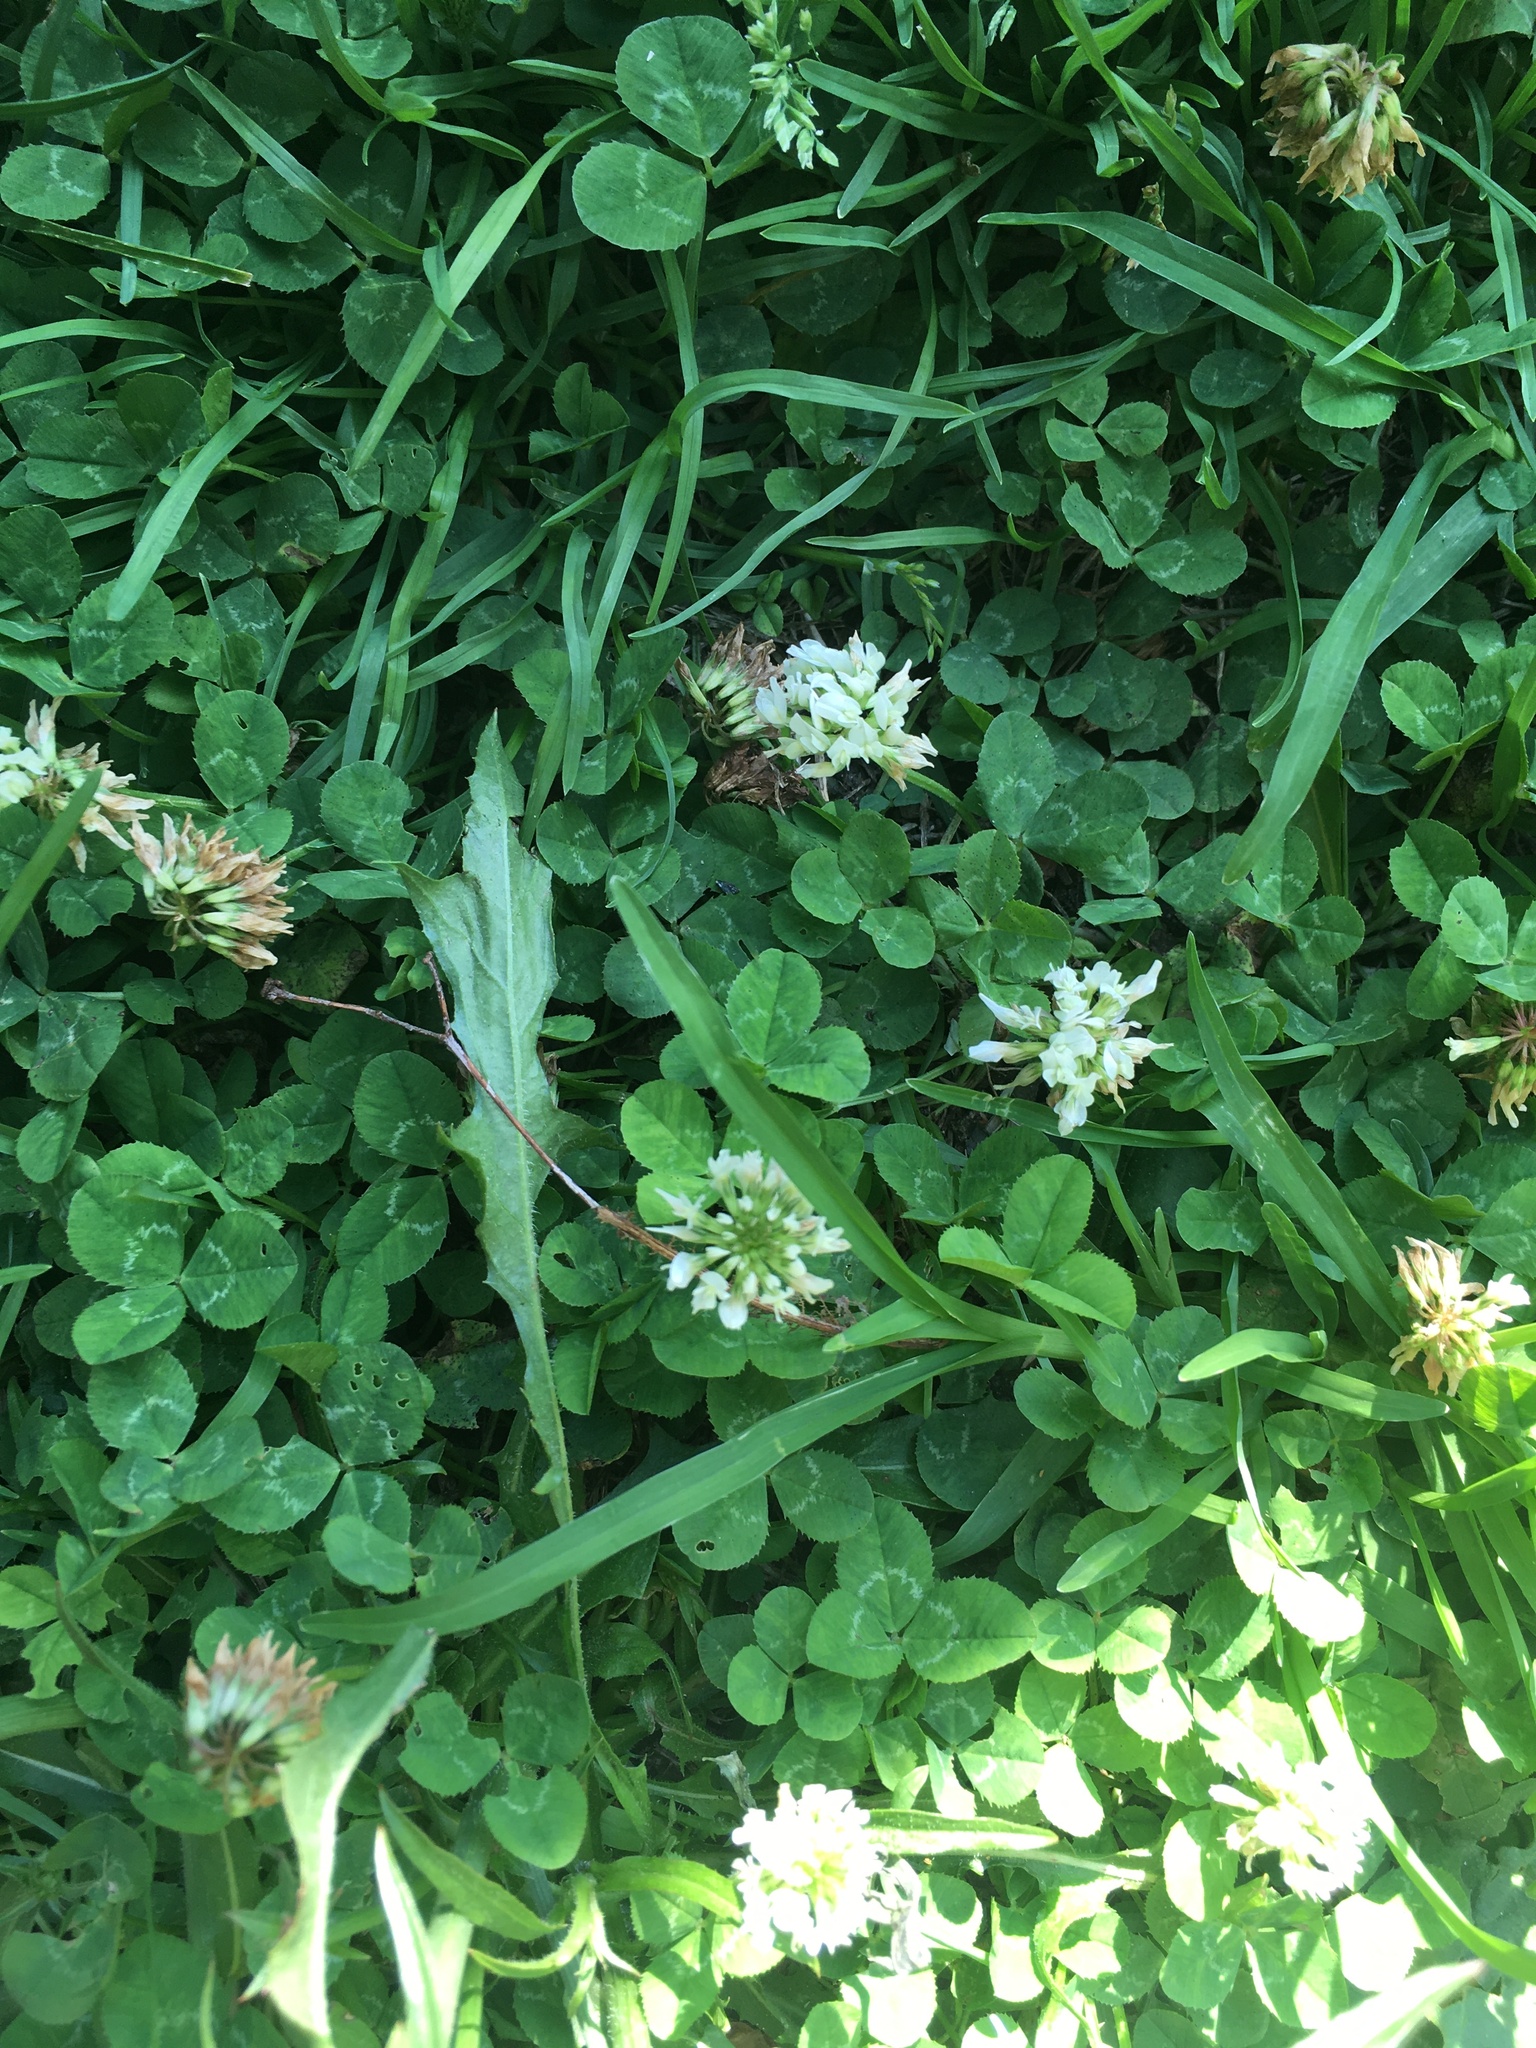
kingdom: Plantae
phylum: Tracheophyta
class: Magnoliopsida
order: Fabales
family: Fabaceae
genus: Trifolium
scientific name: Trifolium repens
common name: White clover
